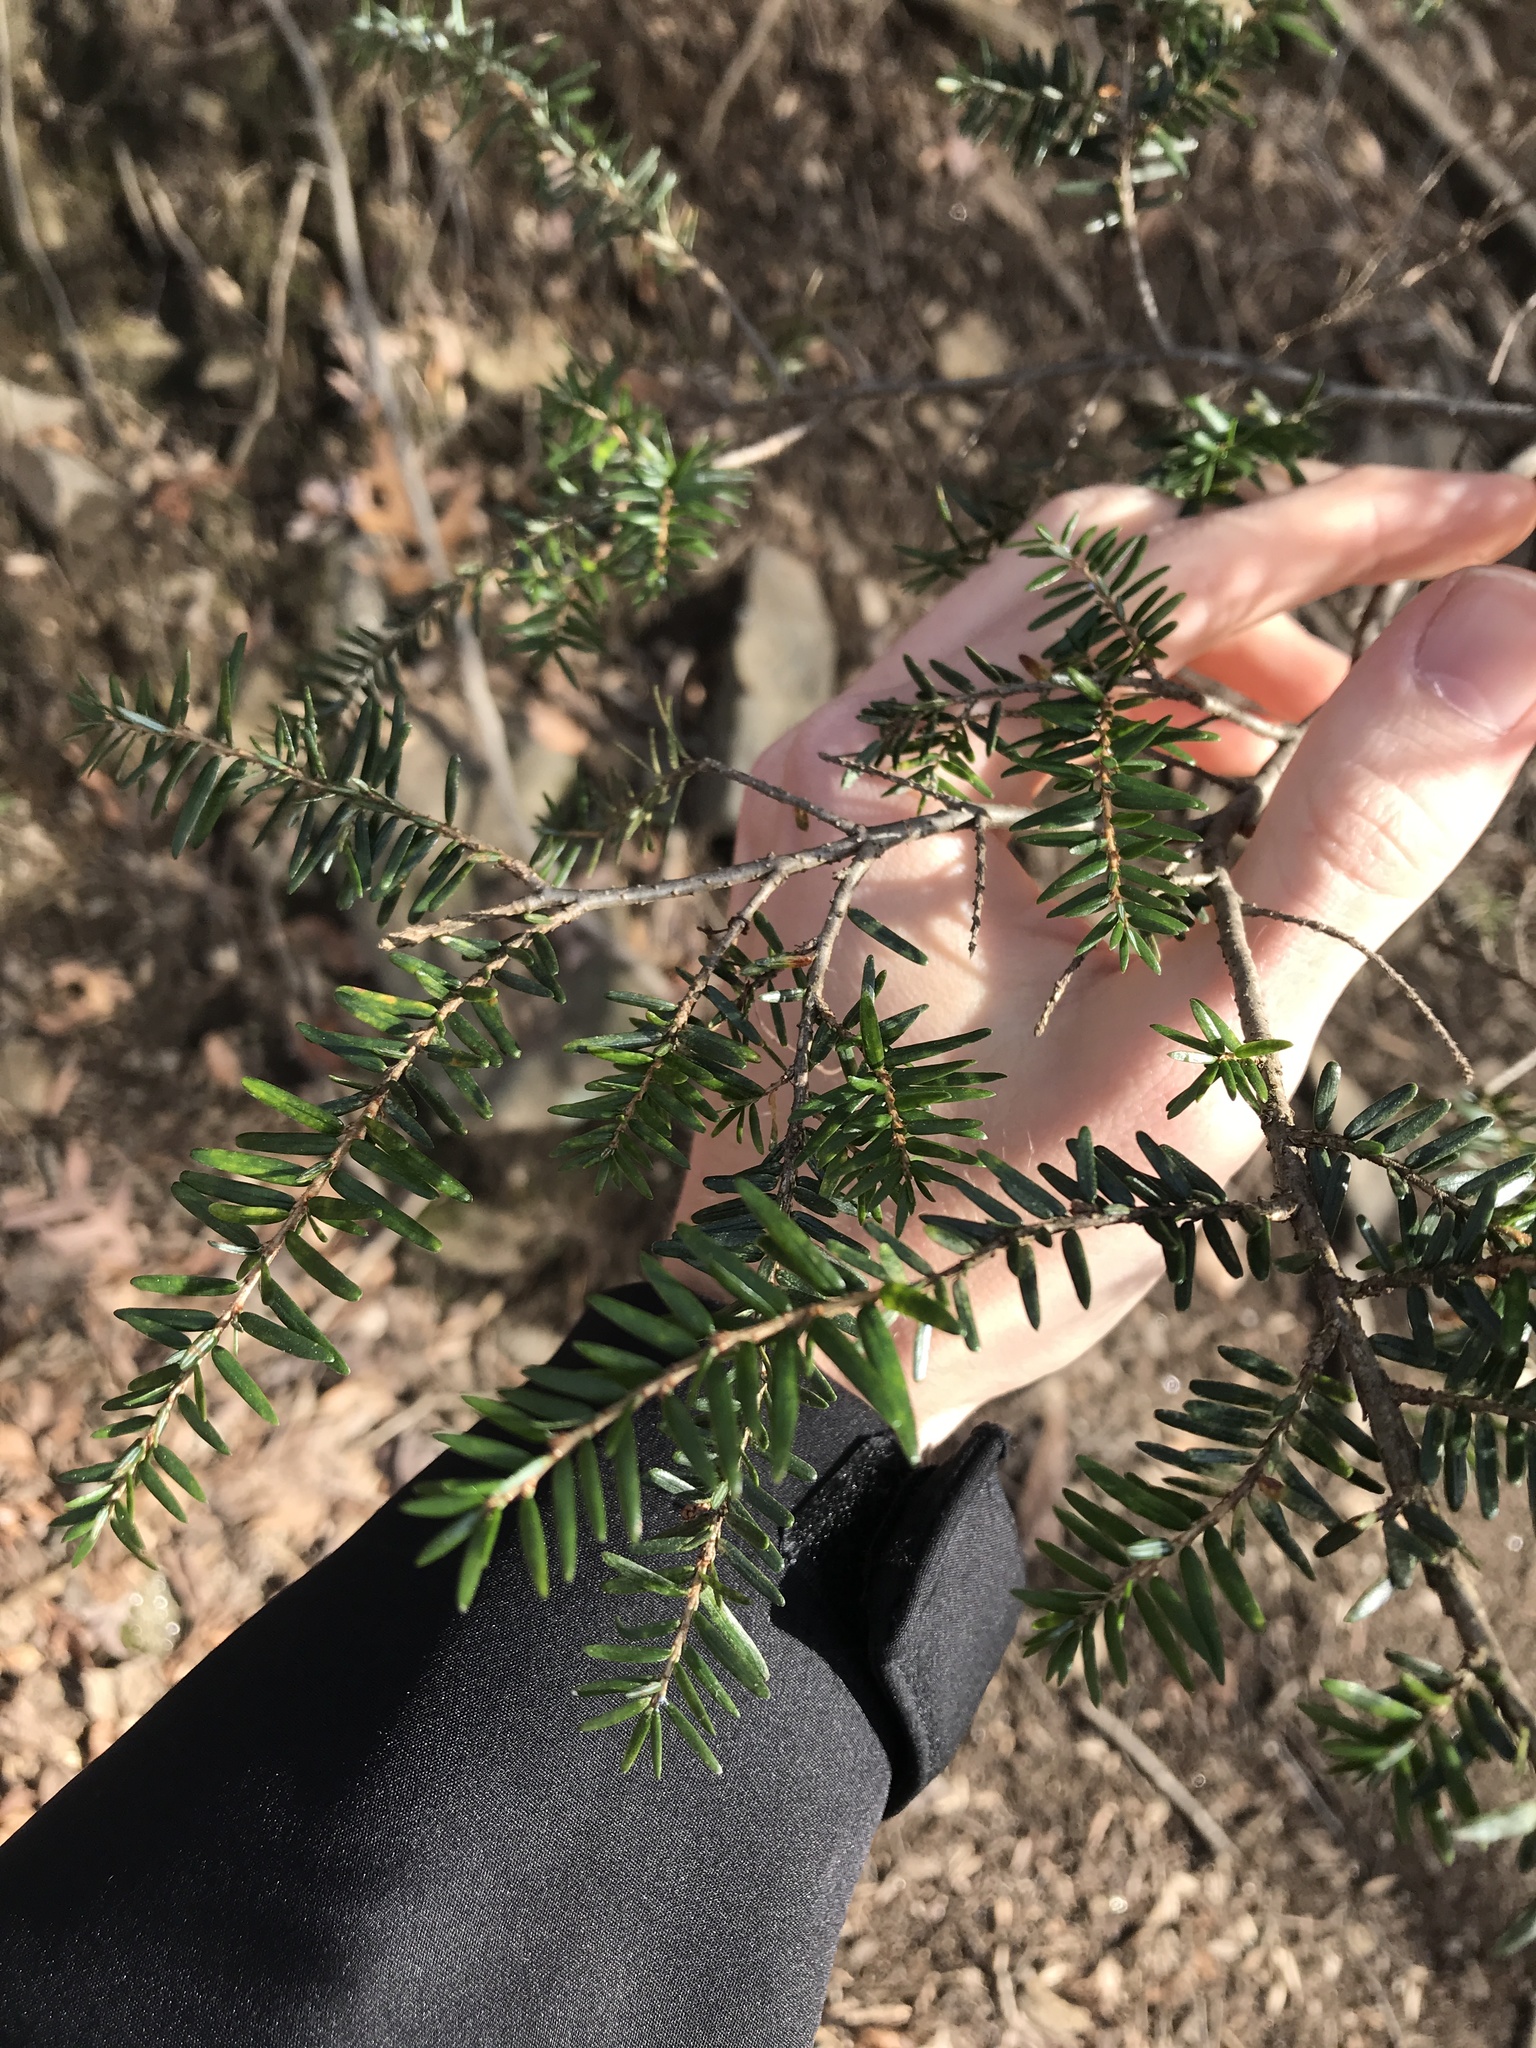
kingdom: Plantae
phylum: Tracheophyta
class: Pinopsida
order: Pinales
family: Pinaceae
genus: Tsuga
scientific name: Tsuga canadensis
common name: Eastern hemlock
